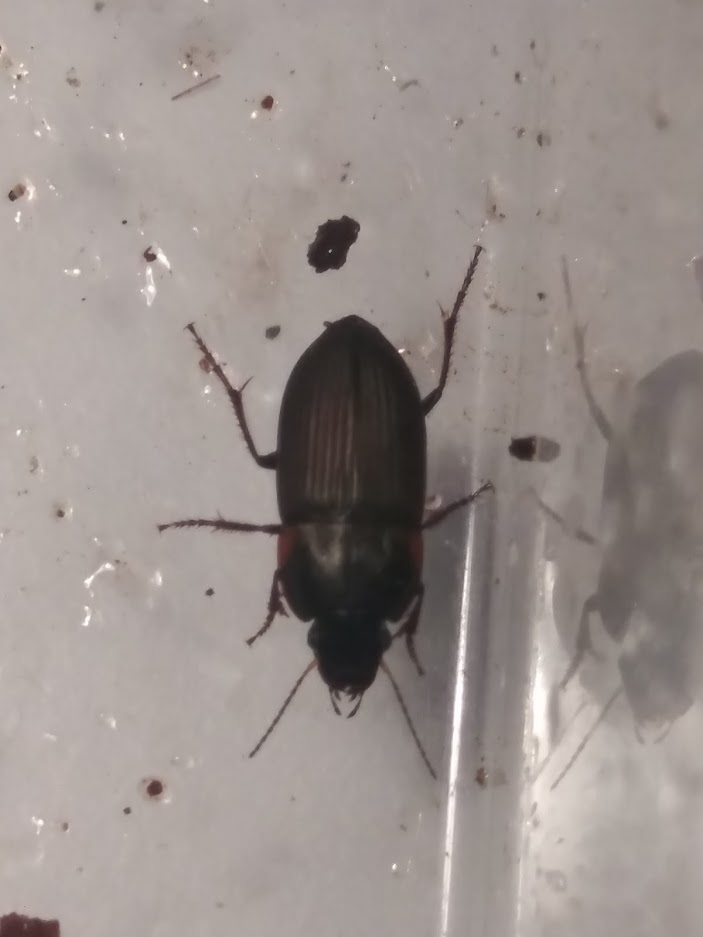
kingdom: Animalia
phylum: Arthropoda
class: Insecta
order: Coleoptera
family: Carabidae
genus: Anisodactylus
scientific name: Anisodactylus rusticus
